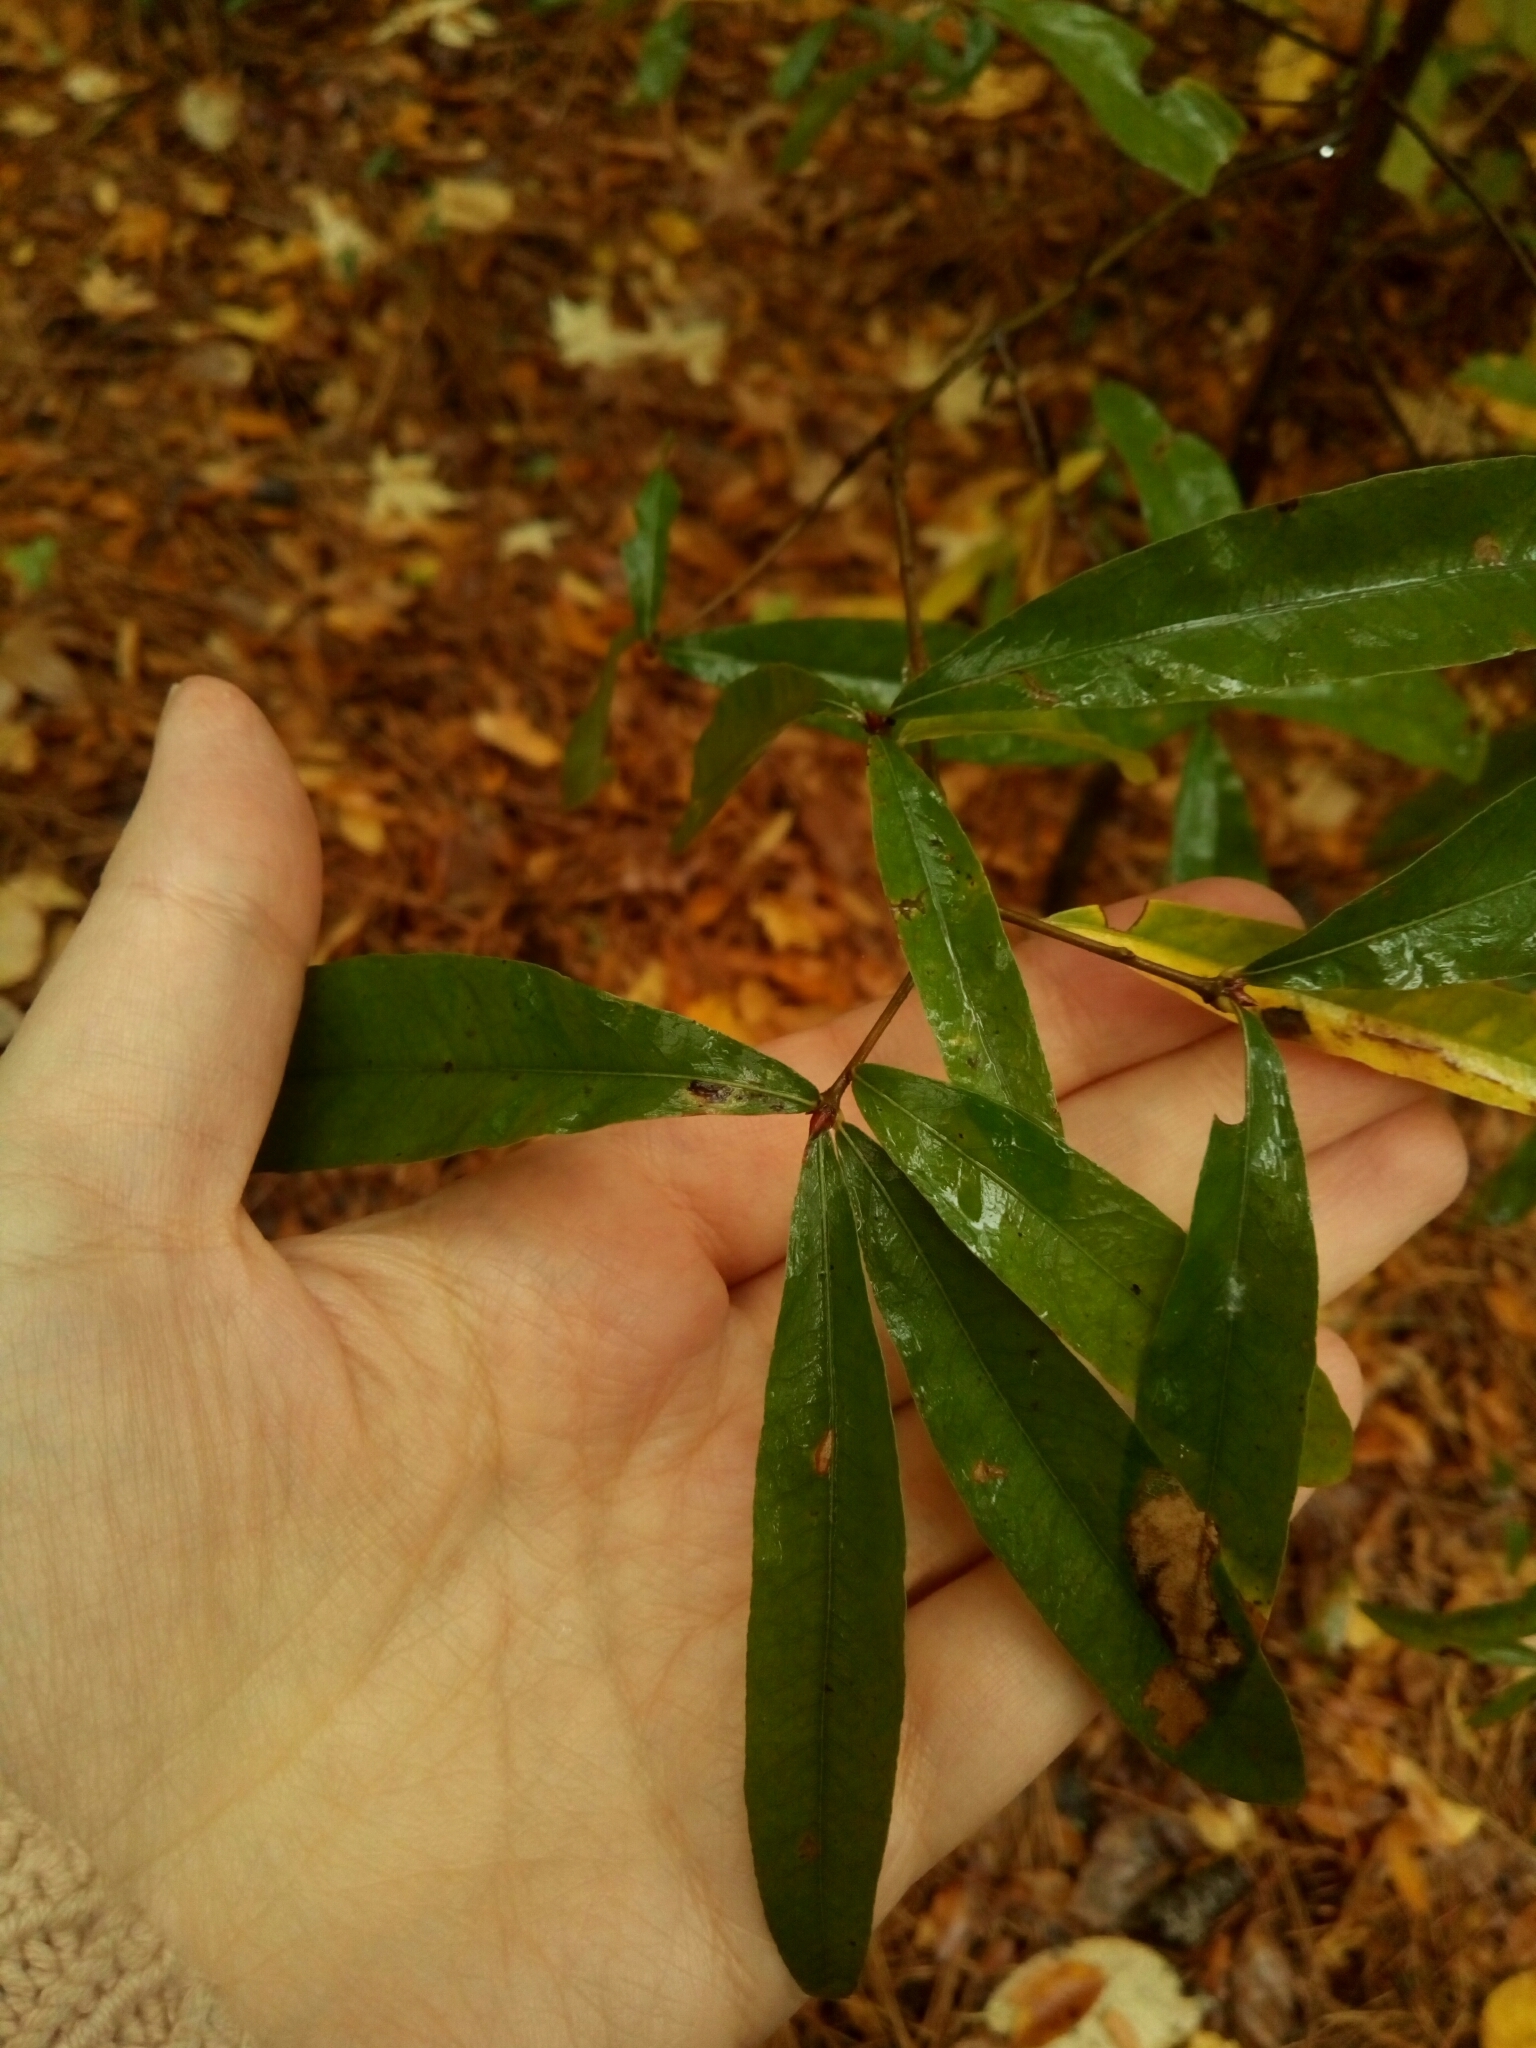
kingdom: Plantae
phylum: Tracheophyta
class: Magnoliopsida
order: Fagales
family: Fagaceae
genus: Quercus
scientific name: Quercus phellos
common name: Willow oak
